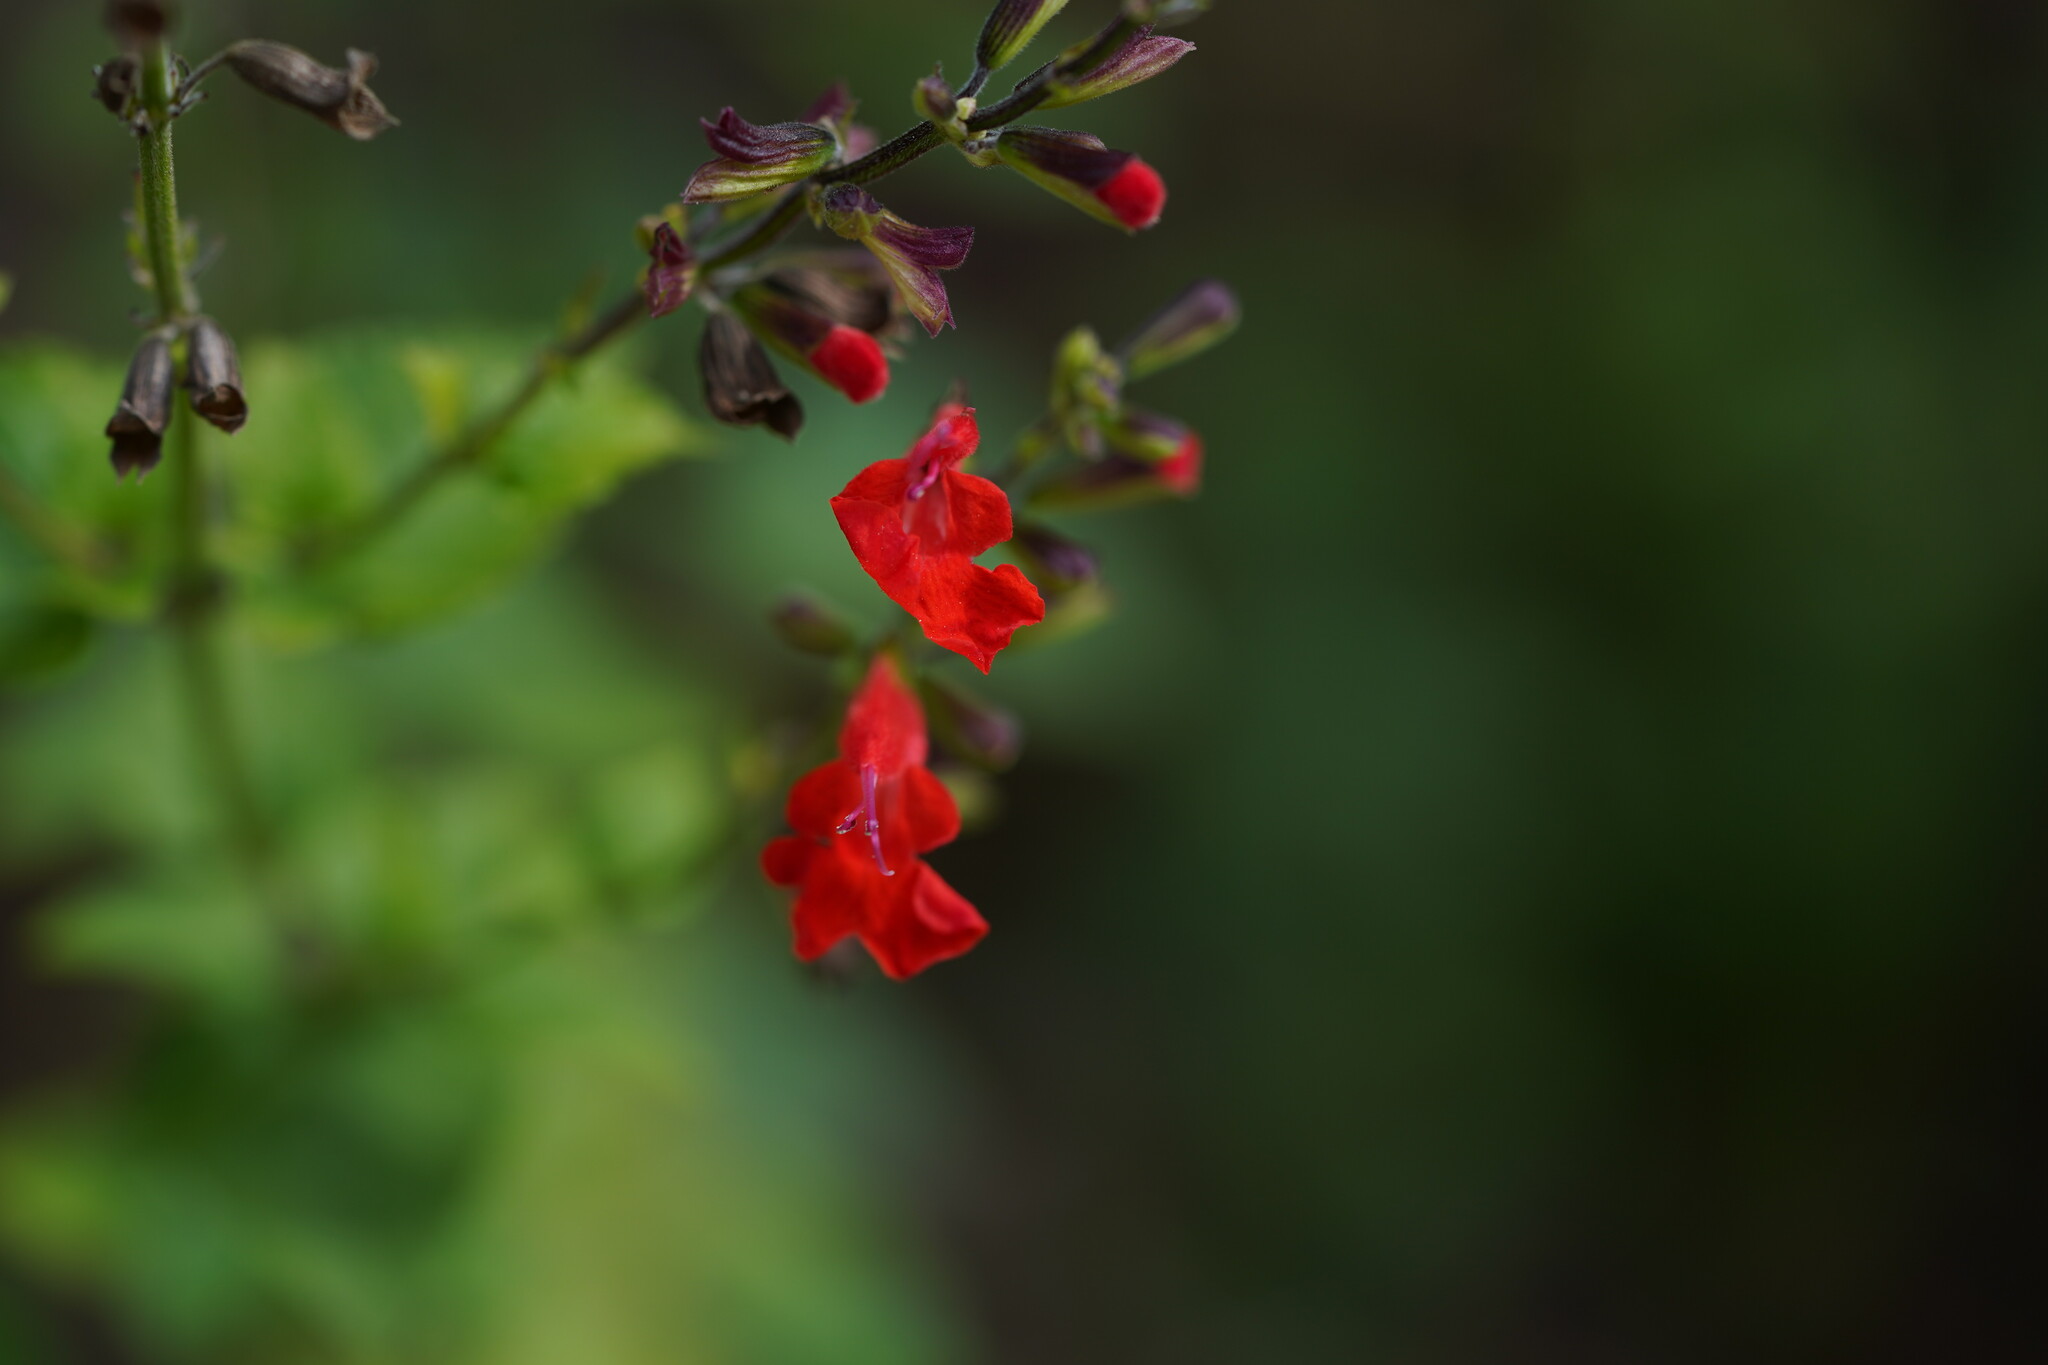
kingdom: Plantae
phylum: Tracheophyta
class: Magnoliopsida
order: Lamiales
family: Lamiaceae
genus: Salvia
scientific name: Salvia coccinea
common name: Blood sage
